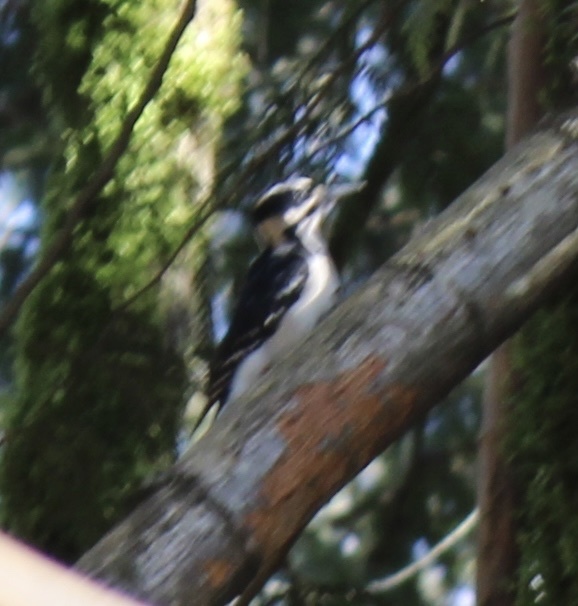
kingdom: Animalia
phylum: Chordata
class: Aves
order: Piciformes
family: Picidae
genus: Leuconotopicus
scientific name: Leuconotopicus villosus
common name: Hairy woodpecker
